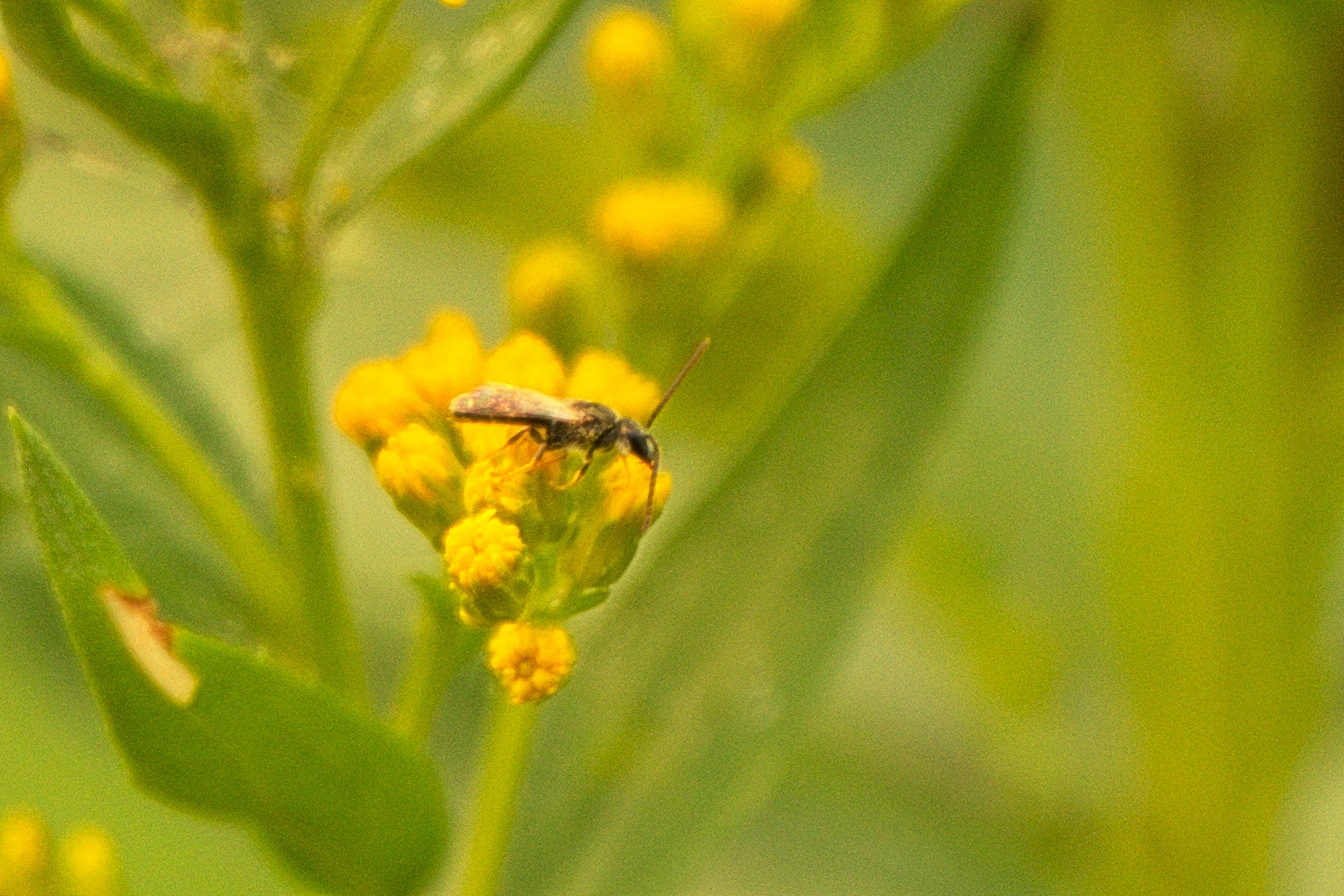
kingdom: Animalia
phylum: Arthropoda
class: Insecta
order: Hymenoptera
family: Halictidae
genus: Dialictus
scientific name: Dialictus
